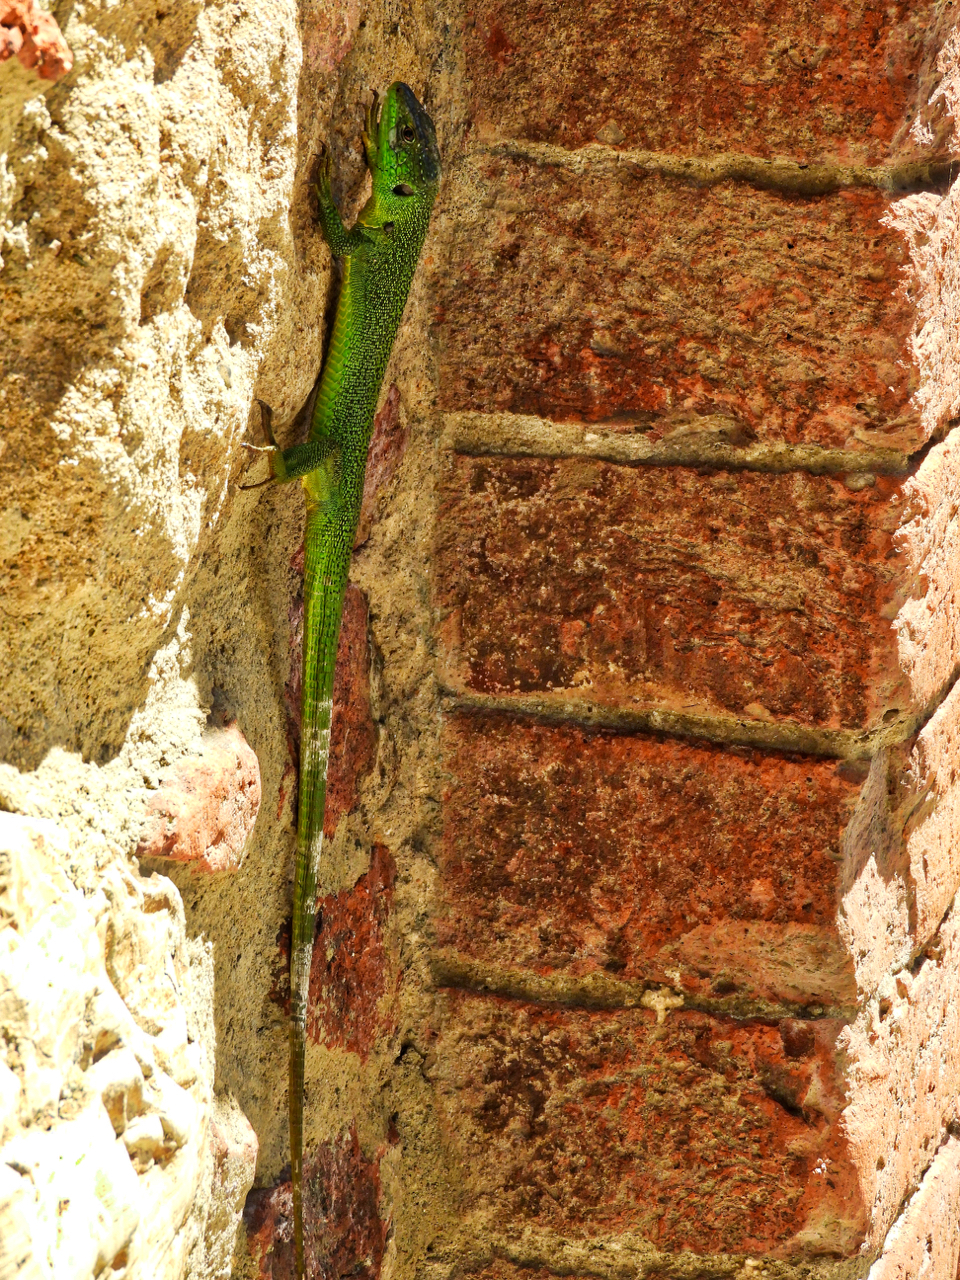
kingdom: Animalia
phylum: Chordata
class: Squamata
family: Lacertidae
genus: Lacerta
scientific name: Lacerta bilineata
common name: Western green lizard
